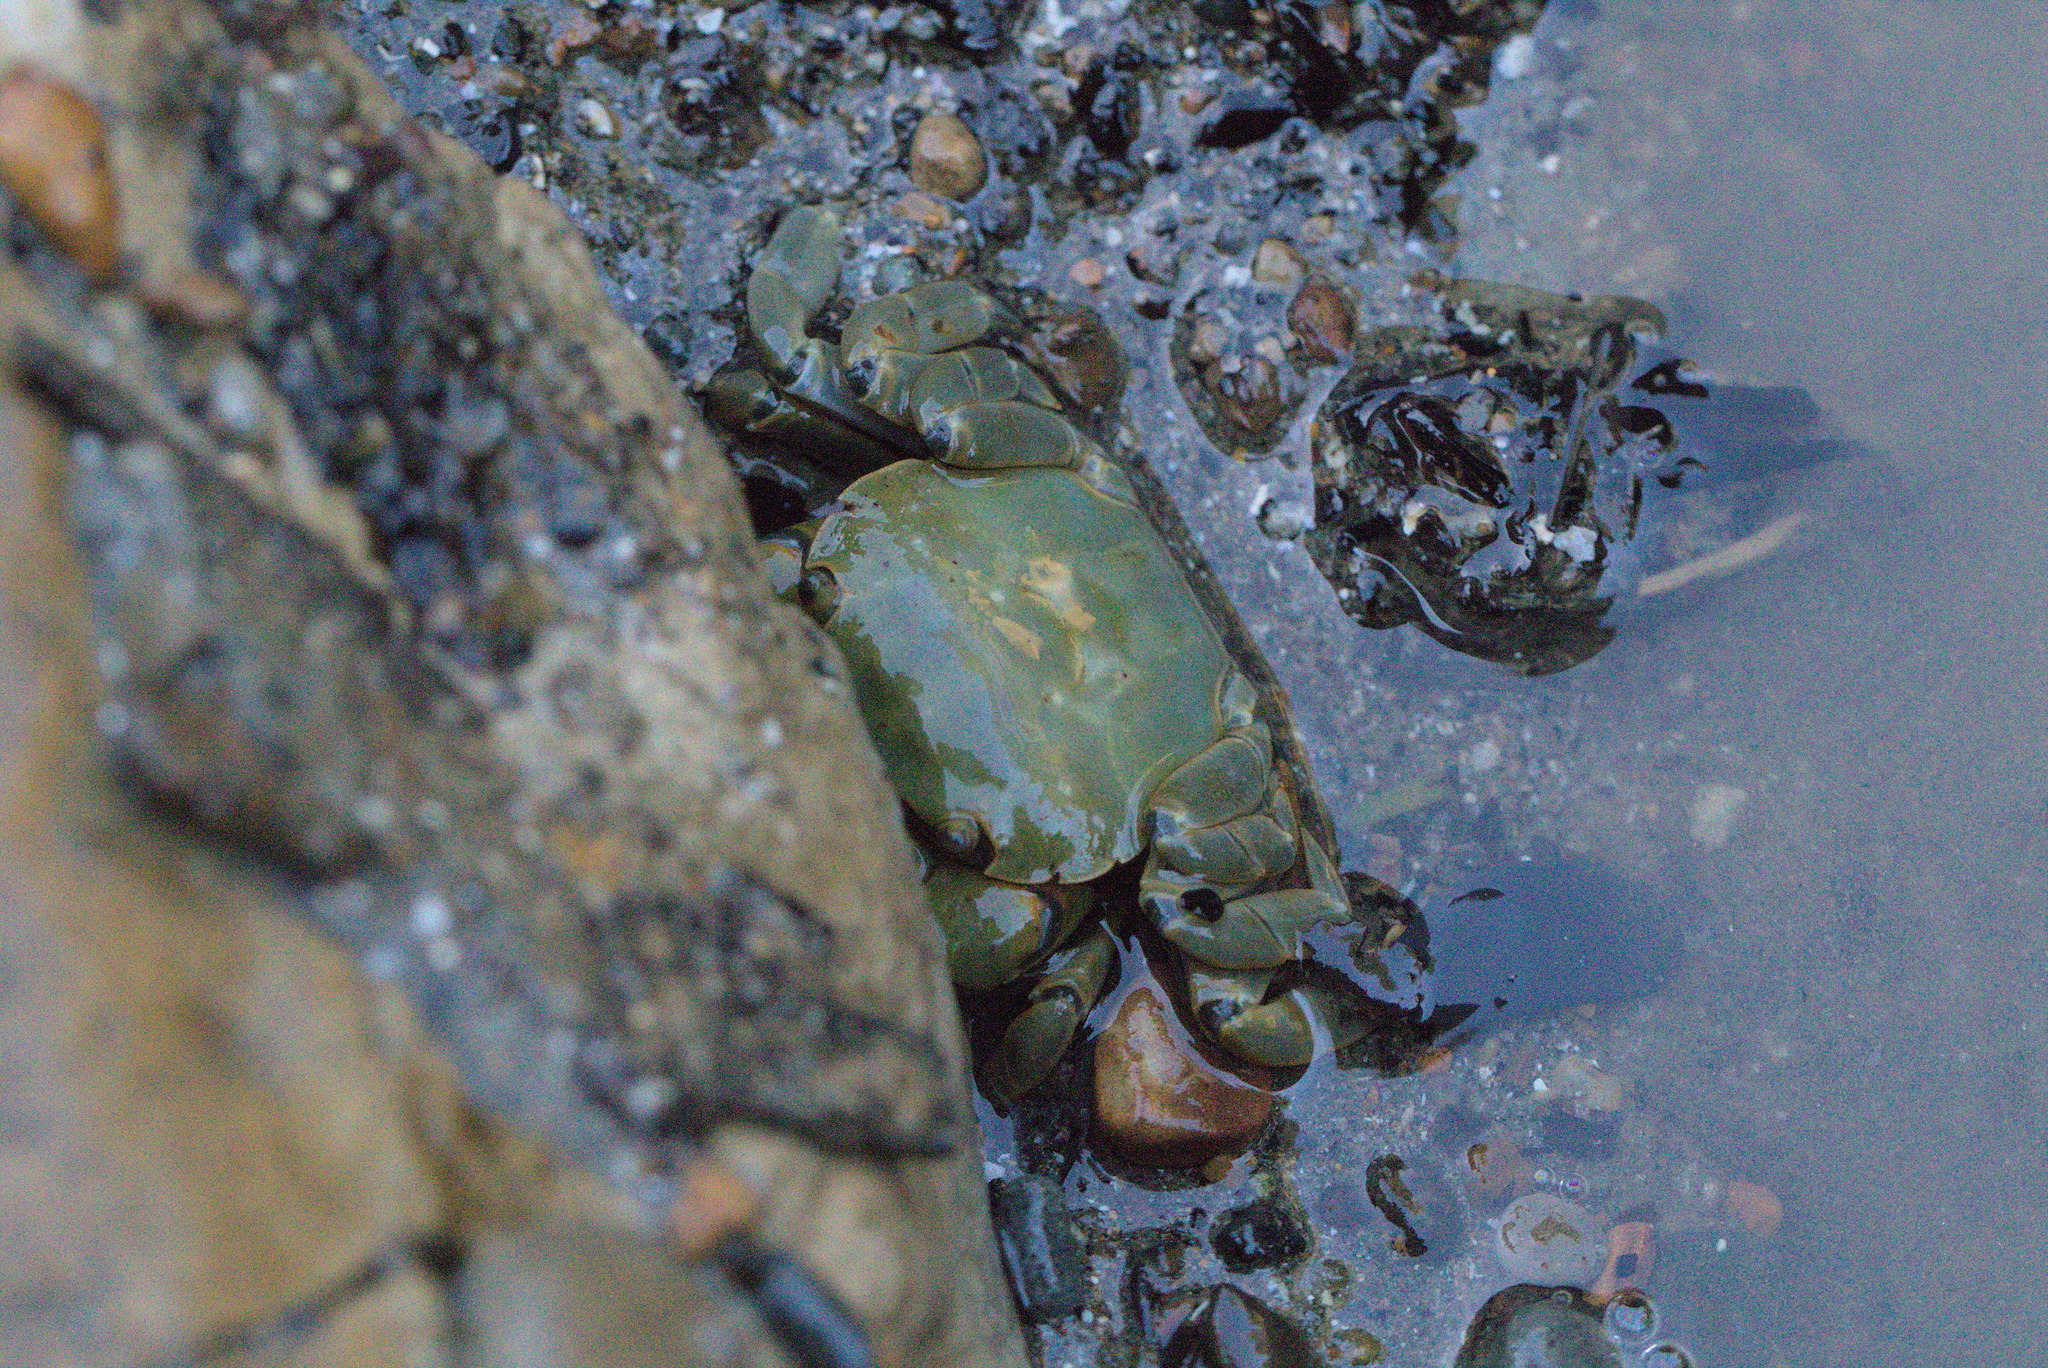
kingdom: Animalia
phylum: Arthropoda
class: Malacostraca
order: Decapoda
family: Varunidae
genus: Hemigrapsus
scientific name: Hemigrapsus nudus
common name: Purple shore crab
